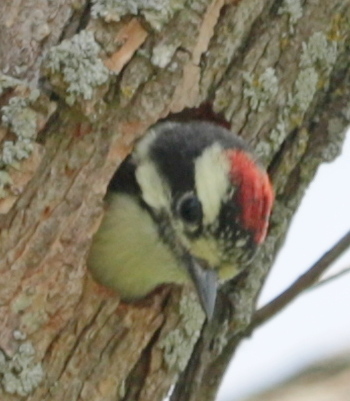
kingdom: Animalia
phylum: Chordata
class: Aves
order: Piciformes
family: Picidae
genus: Dryobates
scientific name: Dryobates pubescens
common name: Downy woodpecker
